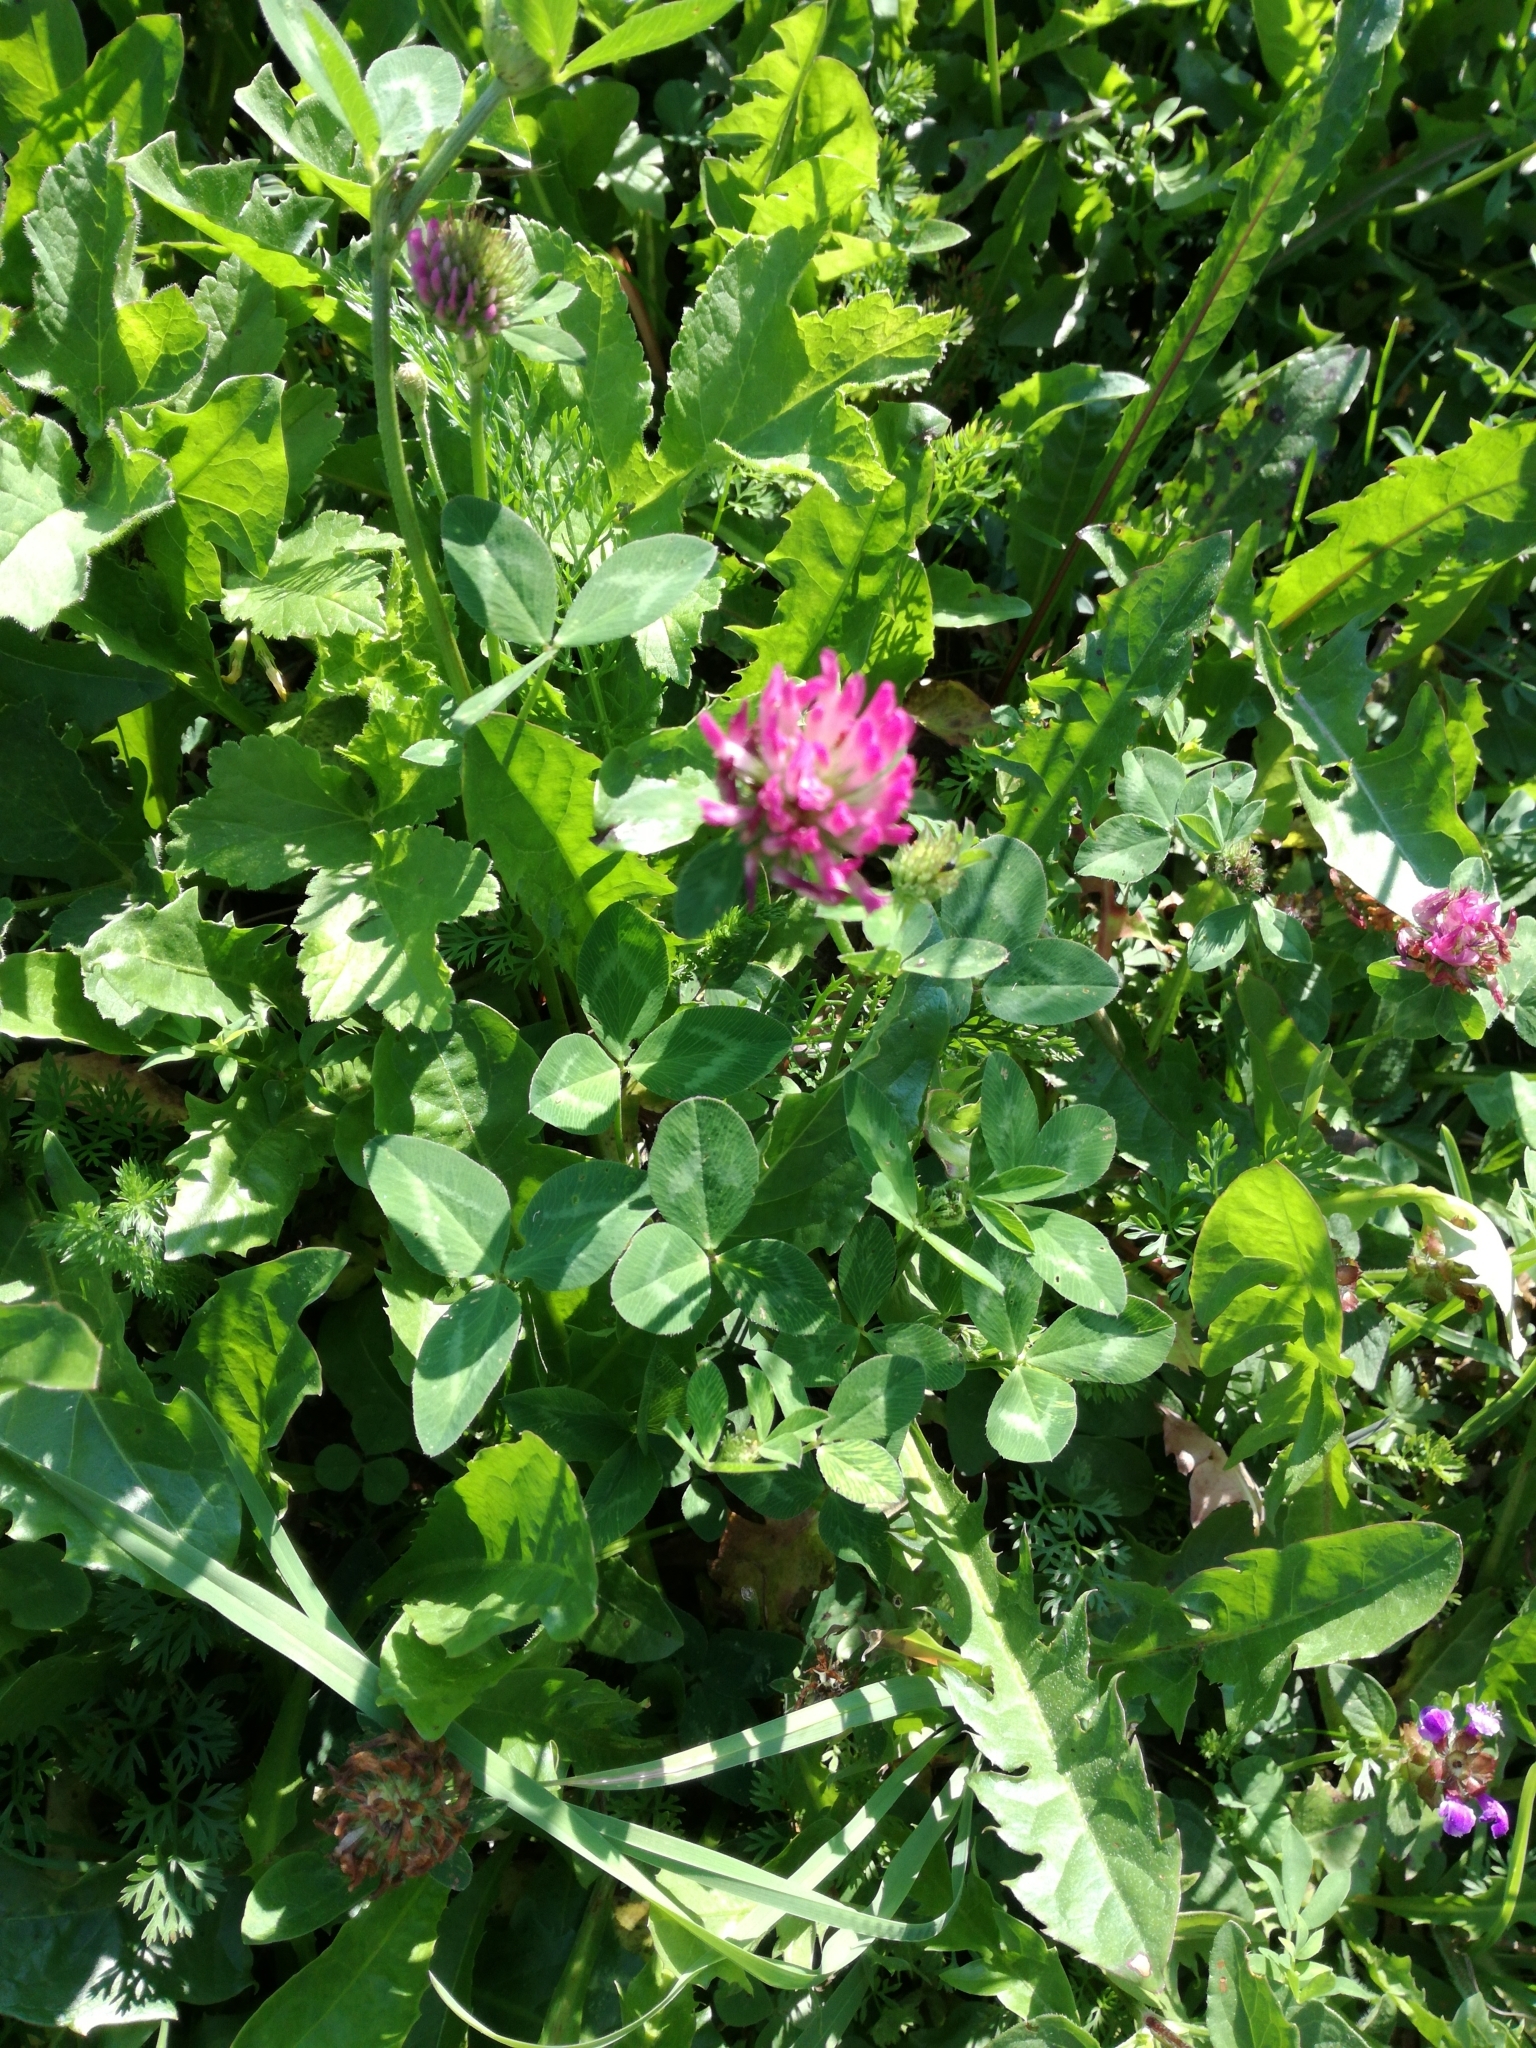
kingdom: Plantae
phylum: Tracheophyta
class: Magnoliopsida
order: Fabales
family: Fabaceae
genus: Trifolium
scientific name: Trifolium pratense
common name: Red clover
